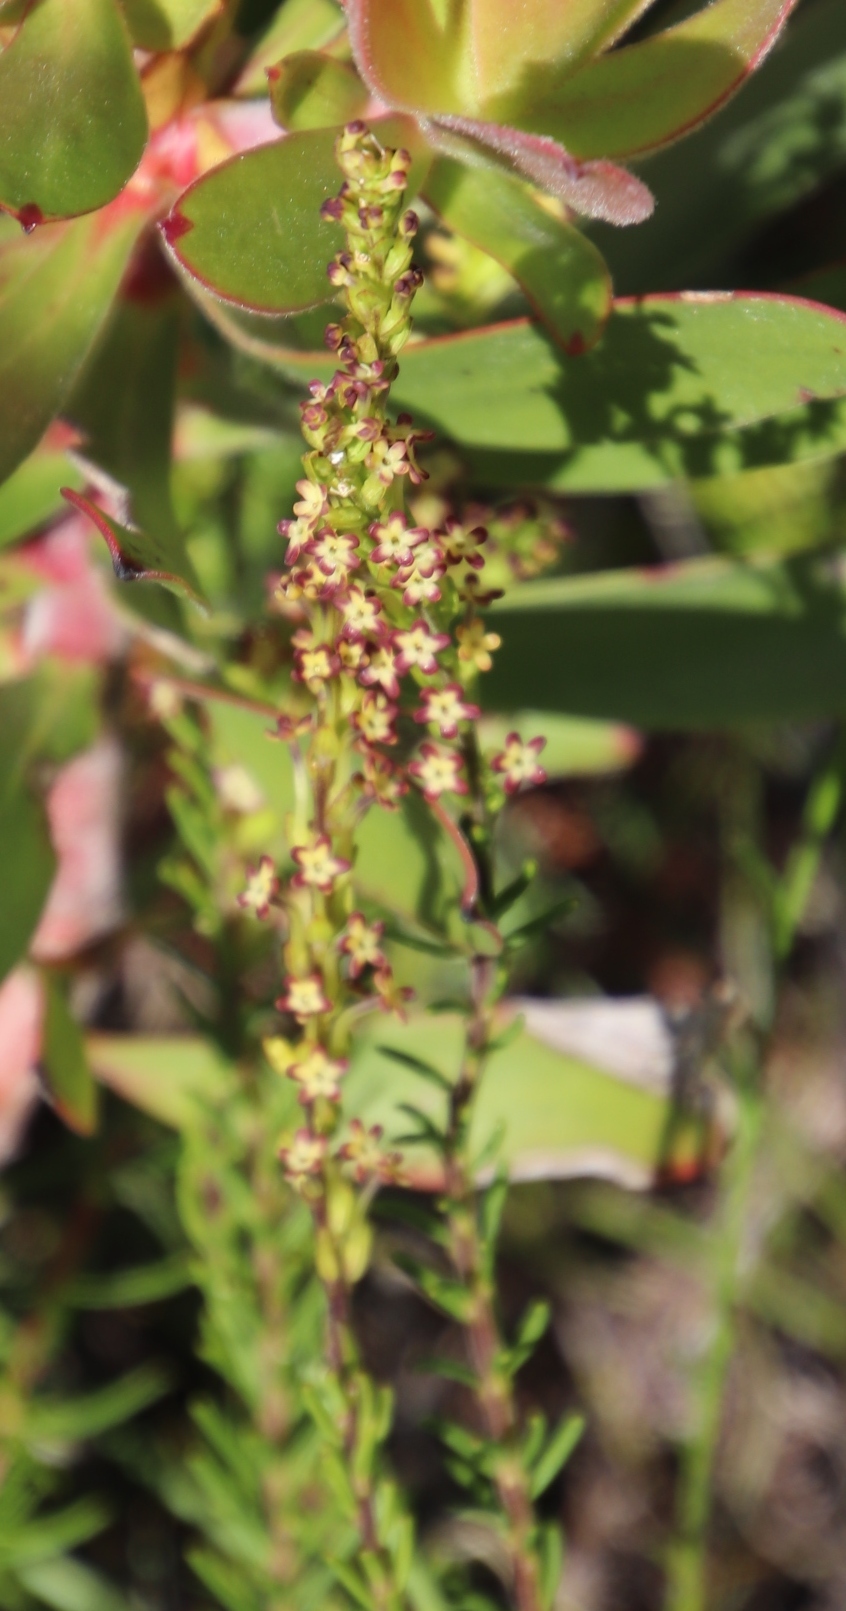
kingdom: Plantae
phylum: Tracheophyta
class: Magnoliopsida
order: Lamiales
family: Scrophulariaceae
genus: Microdon
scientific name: Microdon dubius
